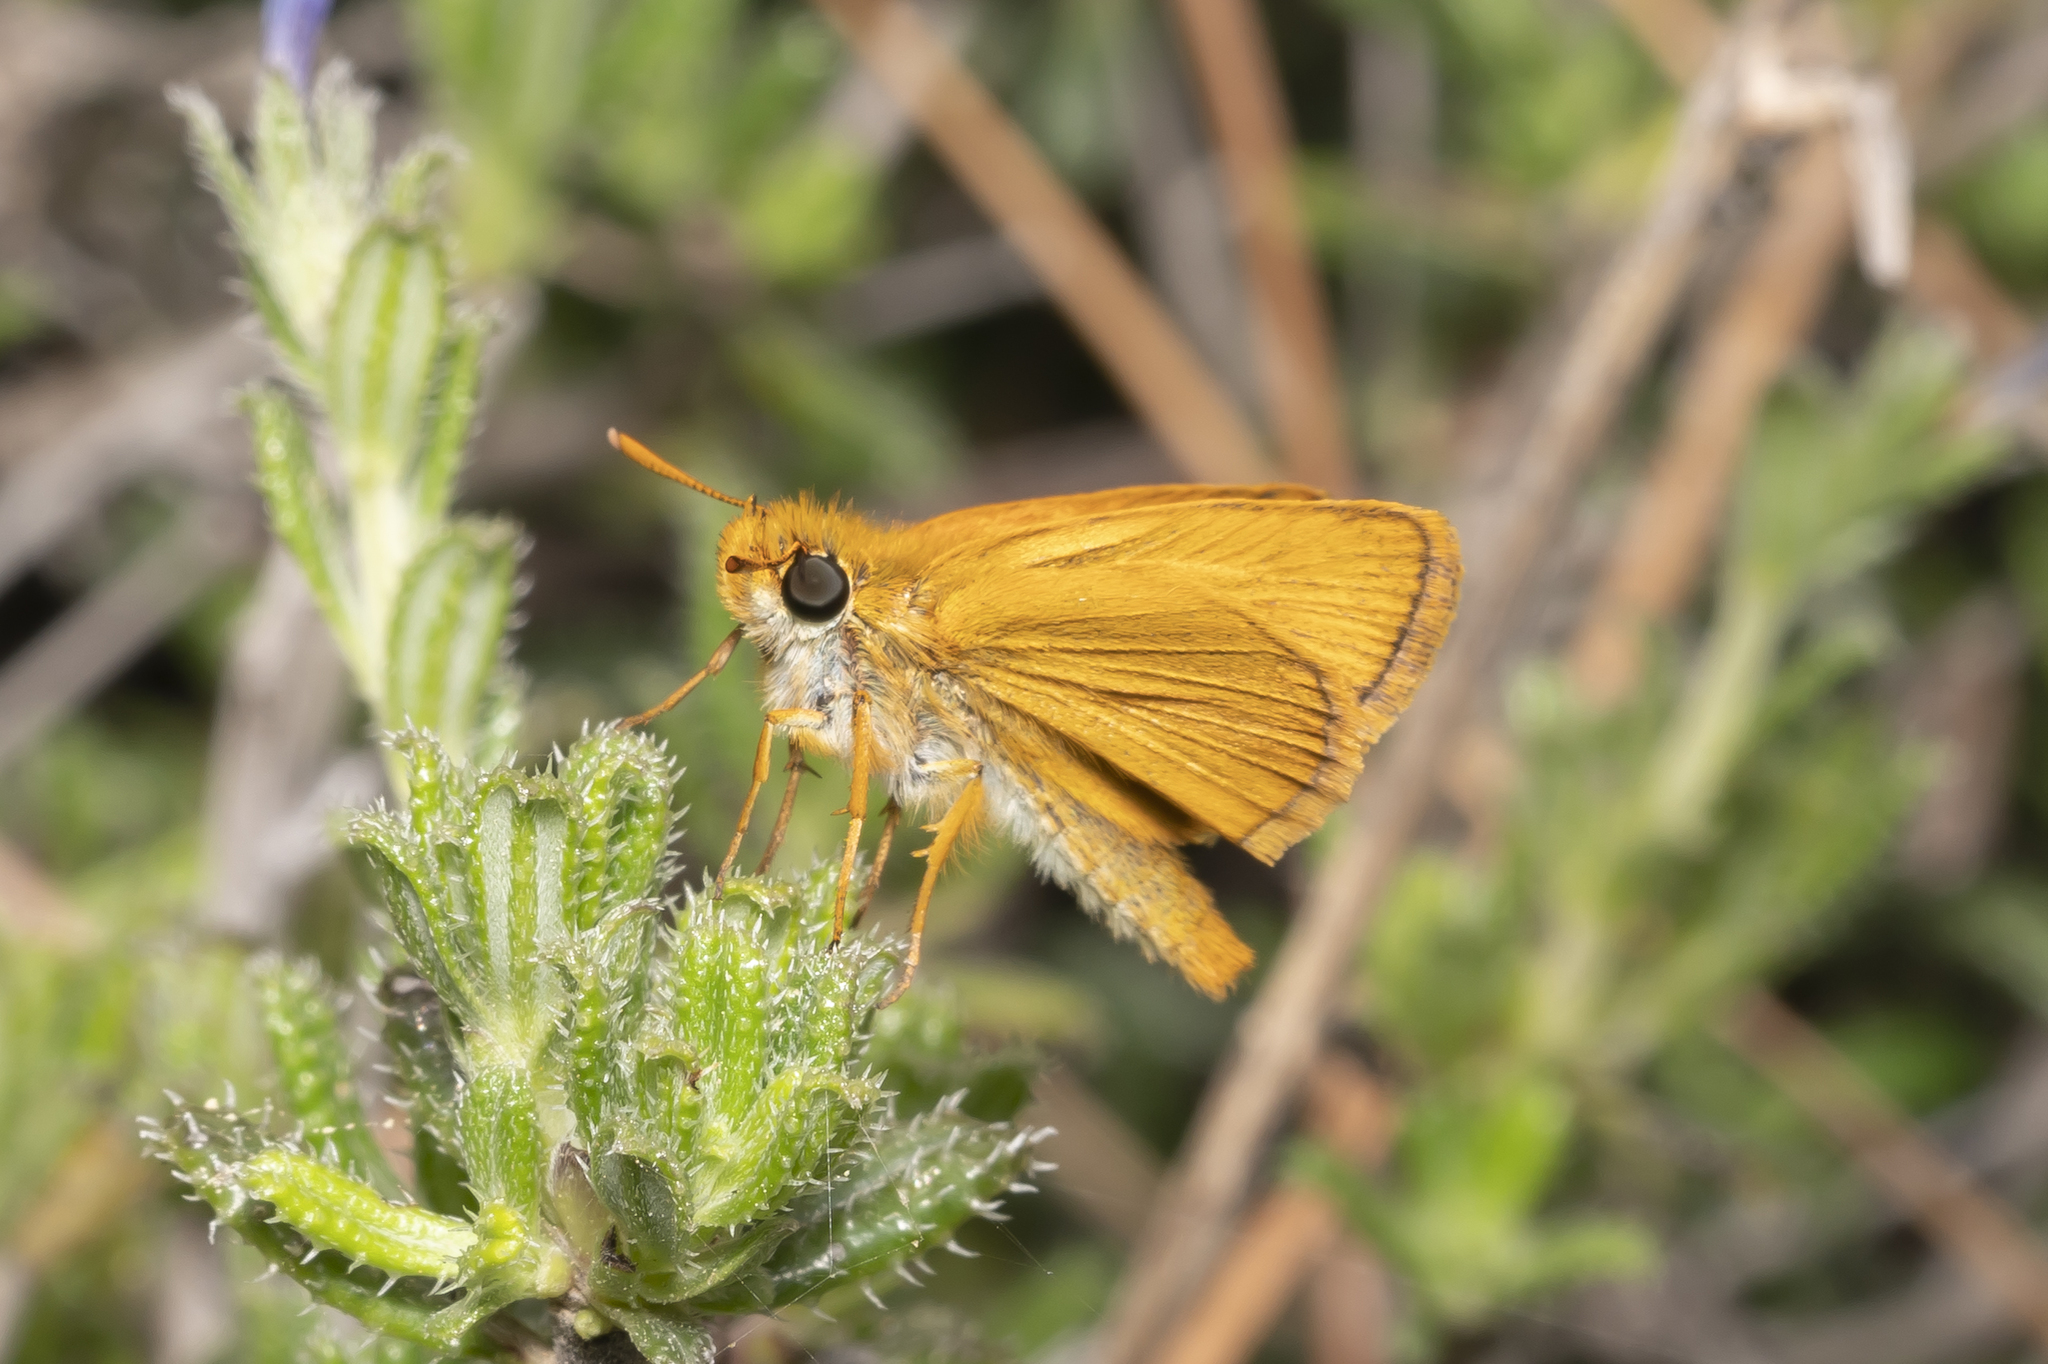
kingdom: Animalia
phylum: Arthropoda
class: Insecta
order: Lepidoptera
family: Hesperiidae
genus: Thymelicus
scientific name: Thymelicus acteon
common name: Lulworth skipper
